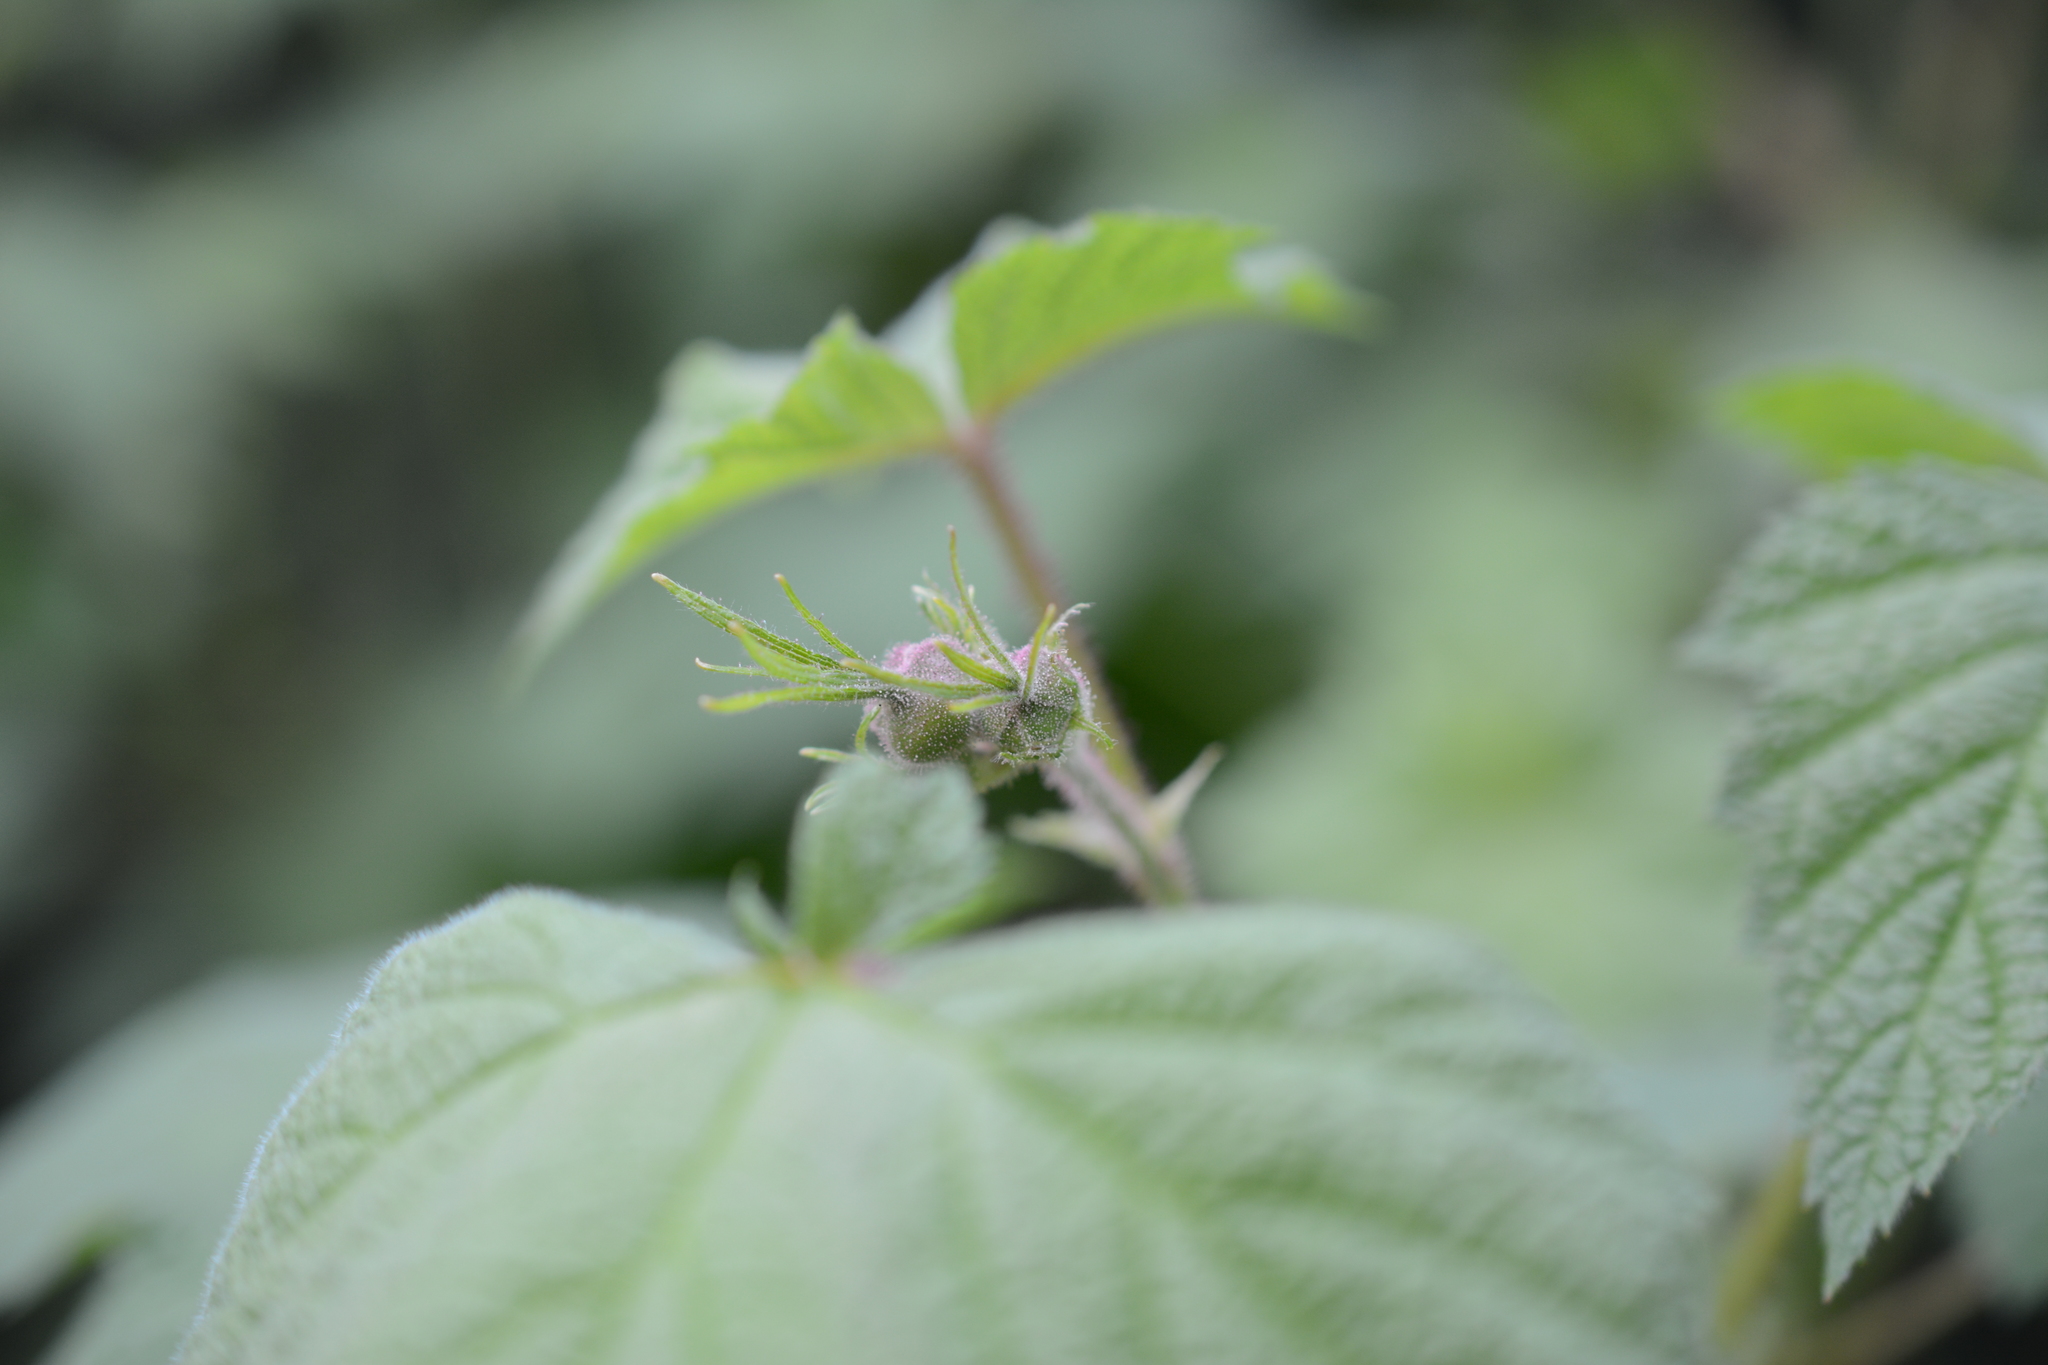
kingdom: Plantae
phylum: Tracheophyta
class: Magnoliopsida
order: Rosales
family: Rosaceae
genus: Rubus
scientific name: Rubus parviflorus
